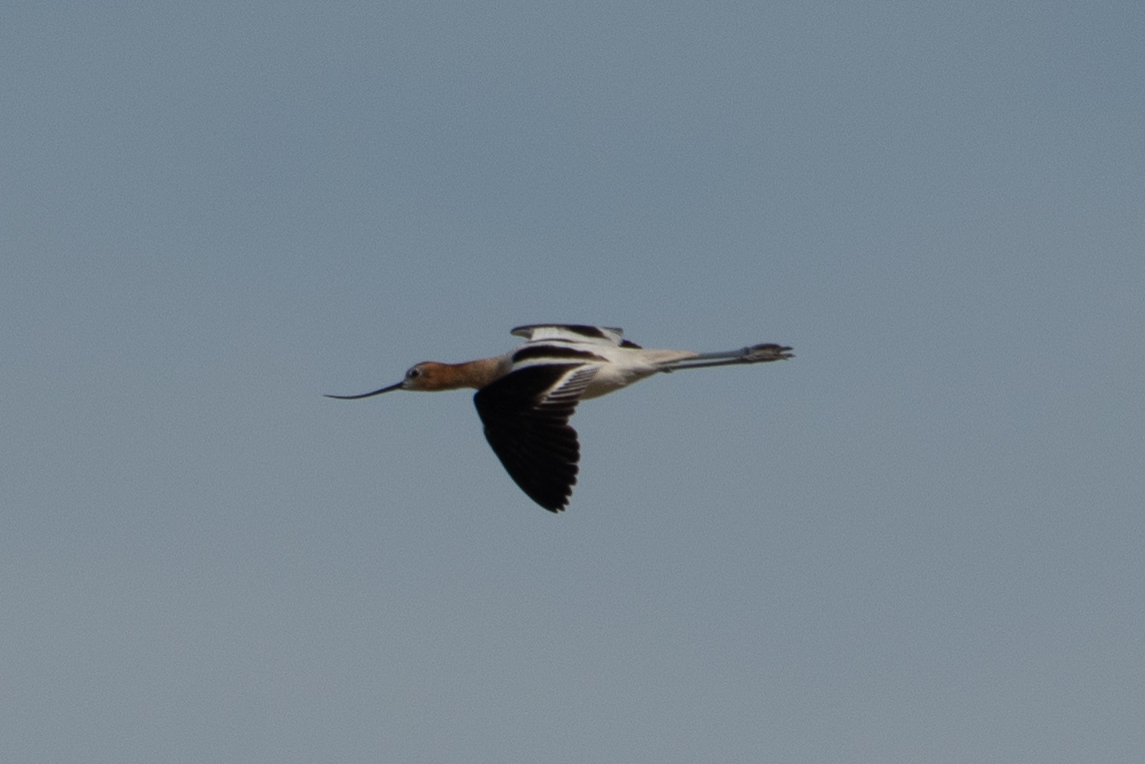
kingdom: Animalia
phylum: Chordata
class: Aves
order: Charadriiformes
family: Recurvirostridae
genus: Recurvirostra
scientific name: Recurvirostra americana
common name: American avocet
